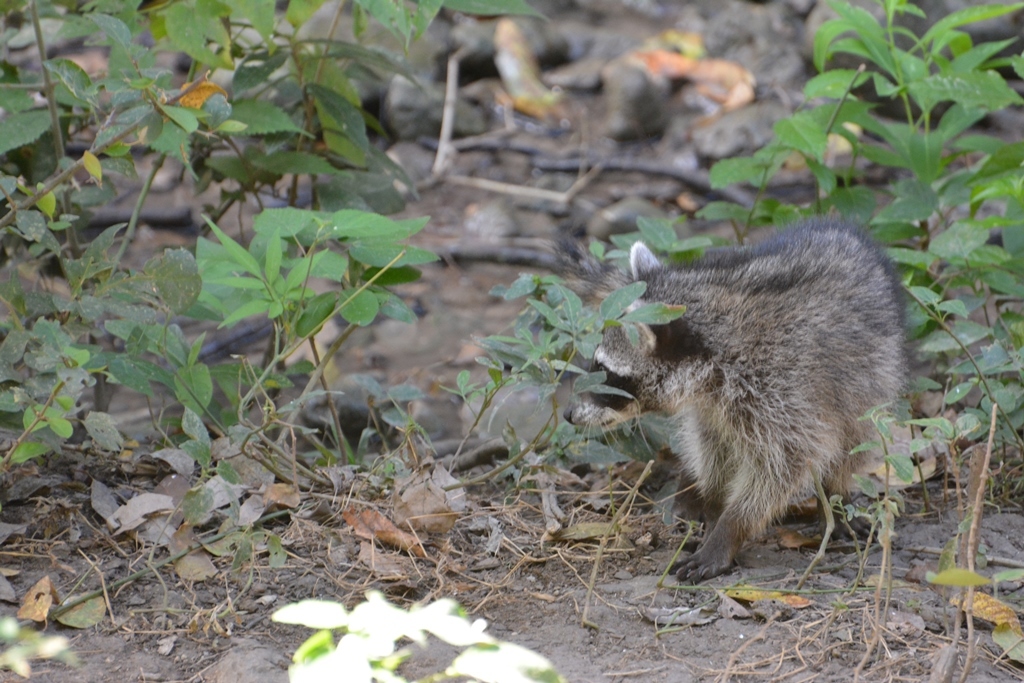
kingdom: Animalia
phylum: Chordata
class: Mammalia
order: Carnivora
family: Procyonidae
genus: Procyon
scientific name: Procyon lotor
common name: Raccoon
